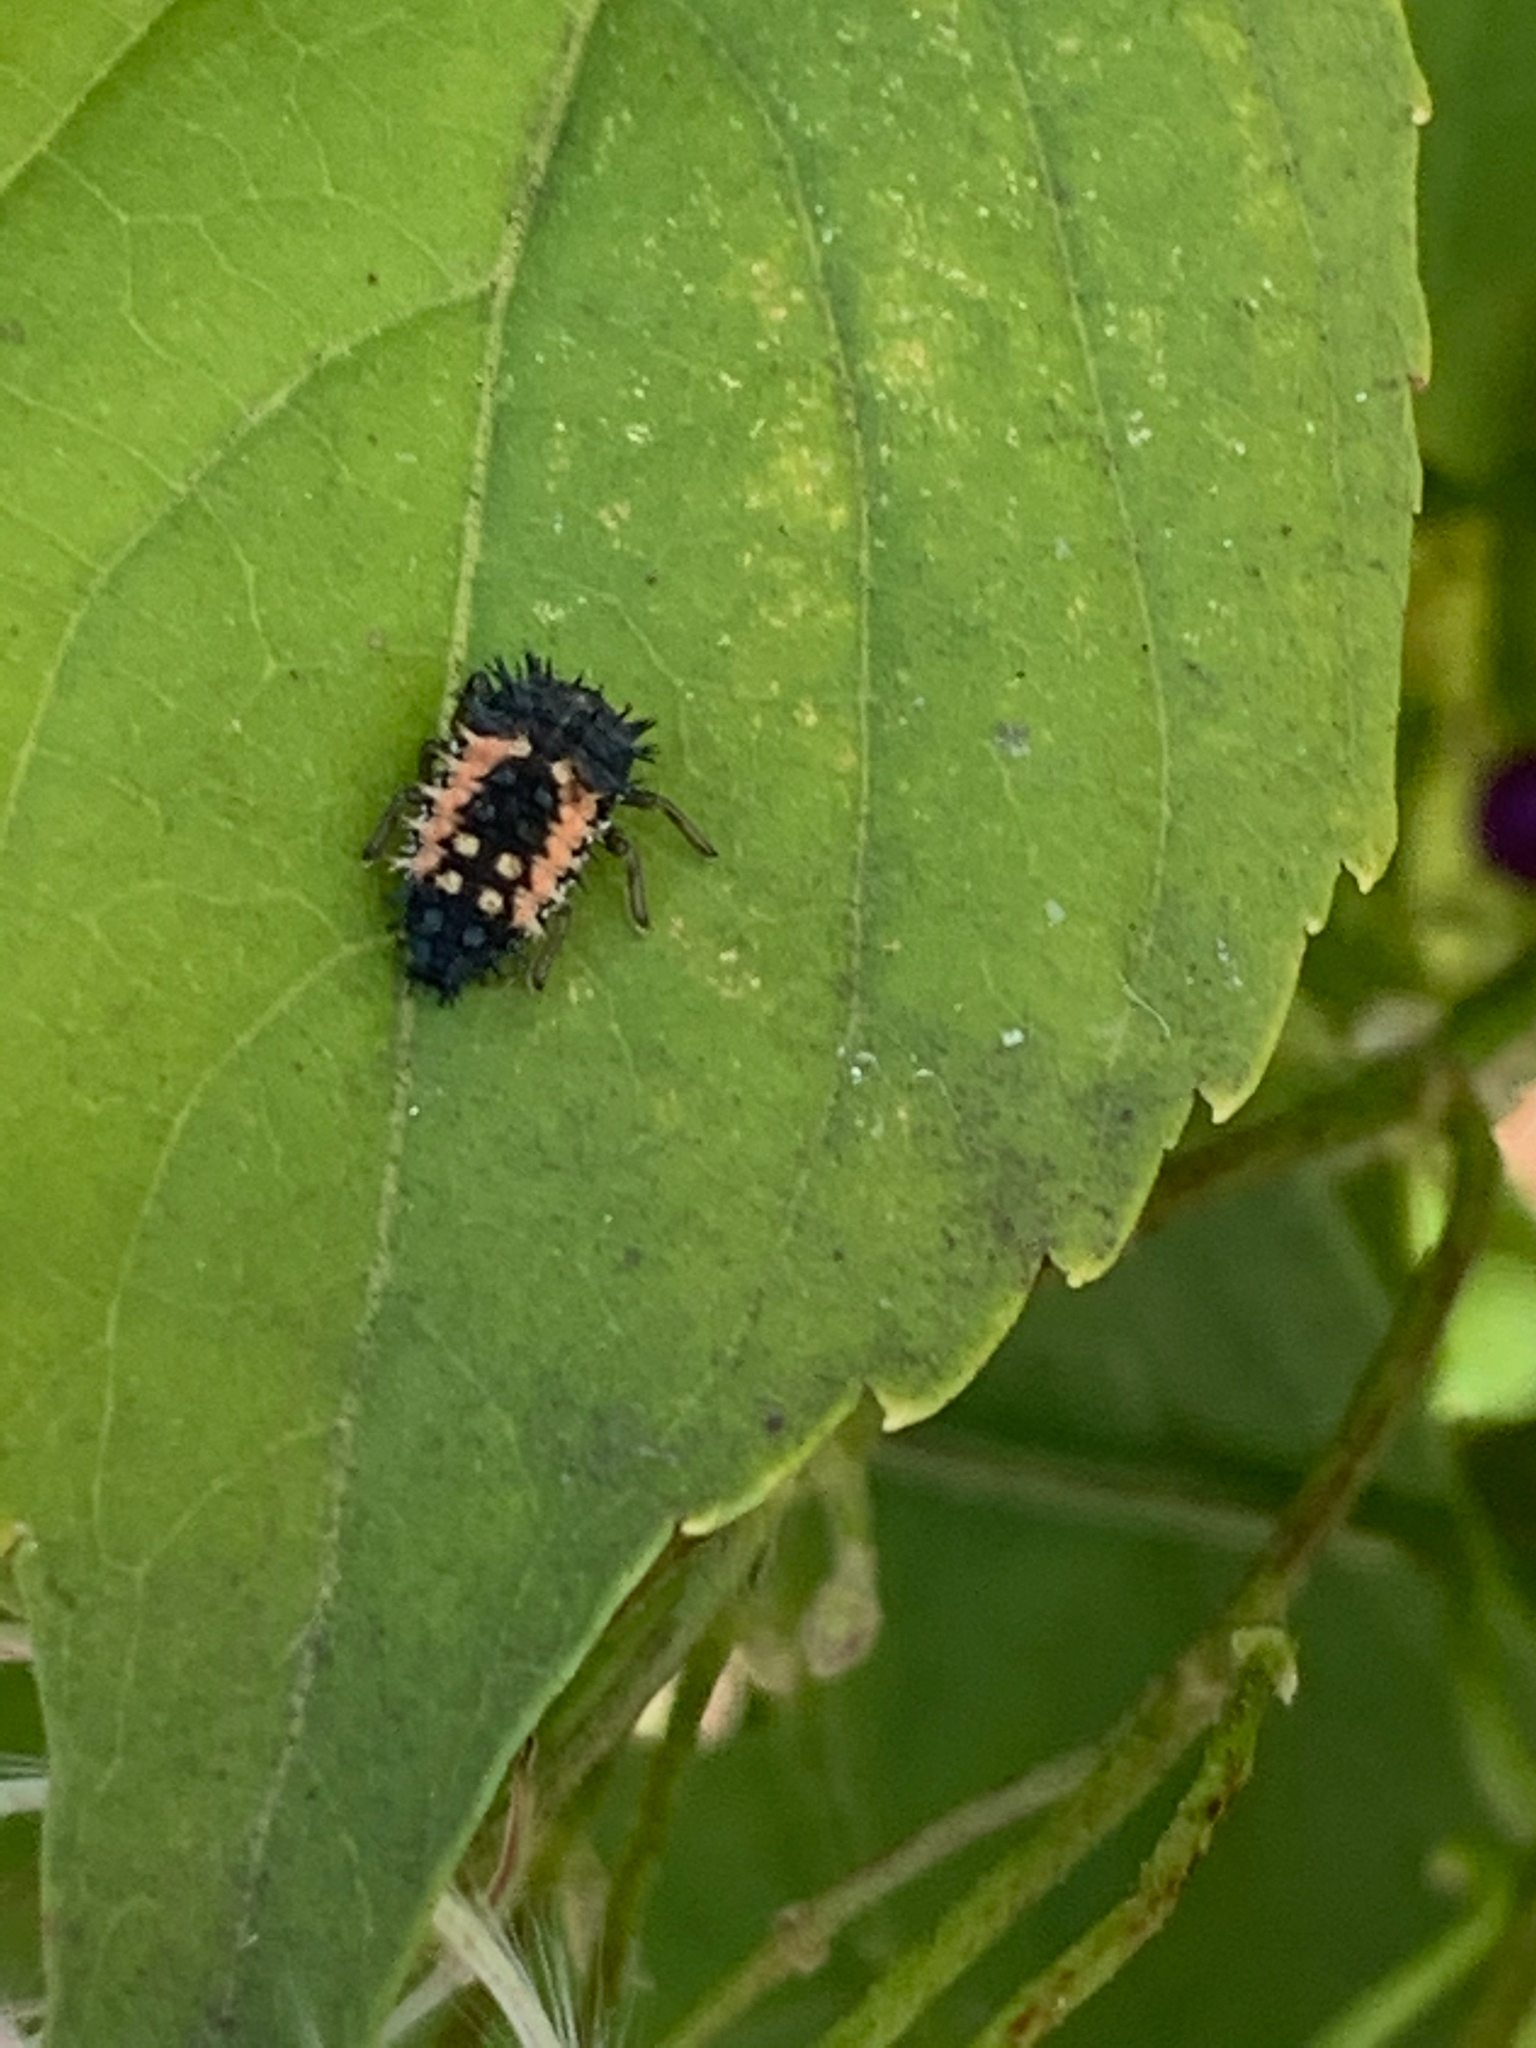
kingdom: Animalia
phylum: Arthropoda
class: Insecta
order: Coleoptera
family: Coccinellidae
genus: Harmonia
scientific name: Harmonia axyridis
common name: Harlequin ladybird
